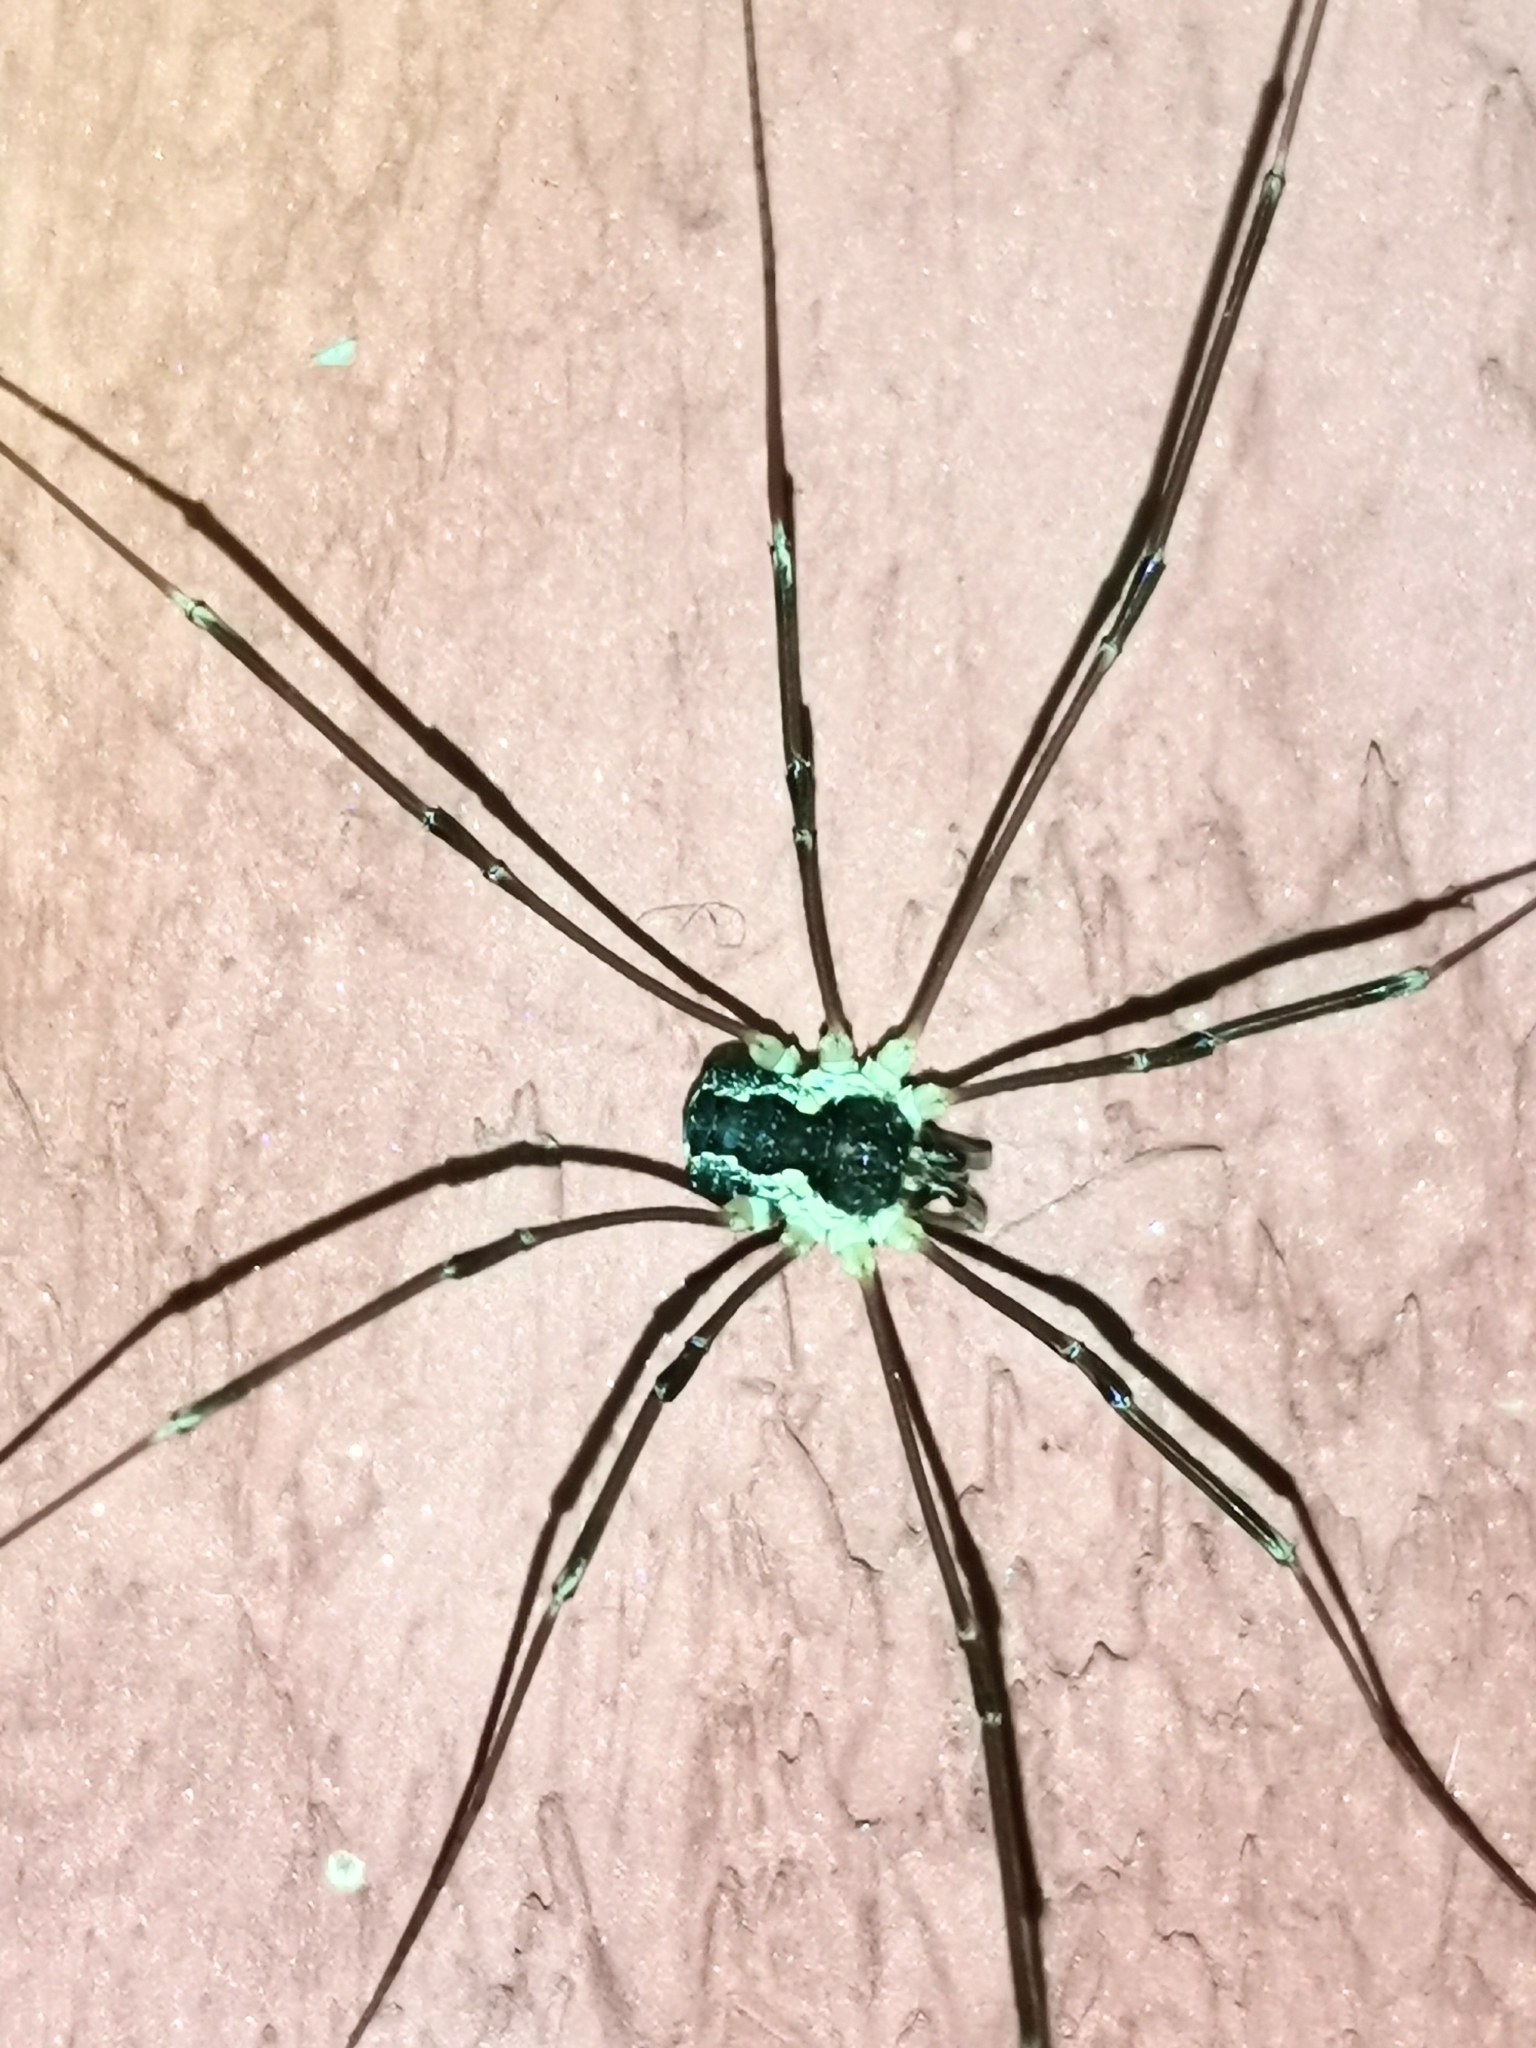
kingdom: Animalia
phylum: Arthropoda
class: Arachnida
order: Opiliones
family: Phalangiidae
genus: Mitopus
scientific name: Mitopus morio
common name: Saddleback harvestman
